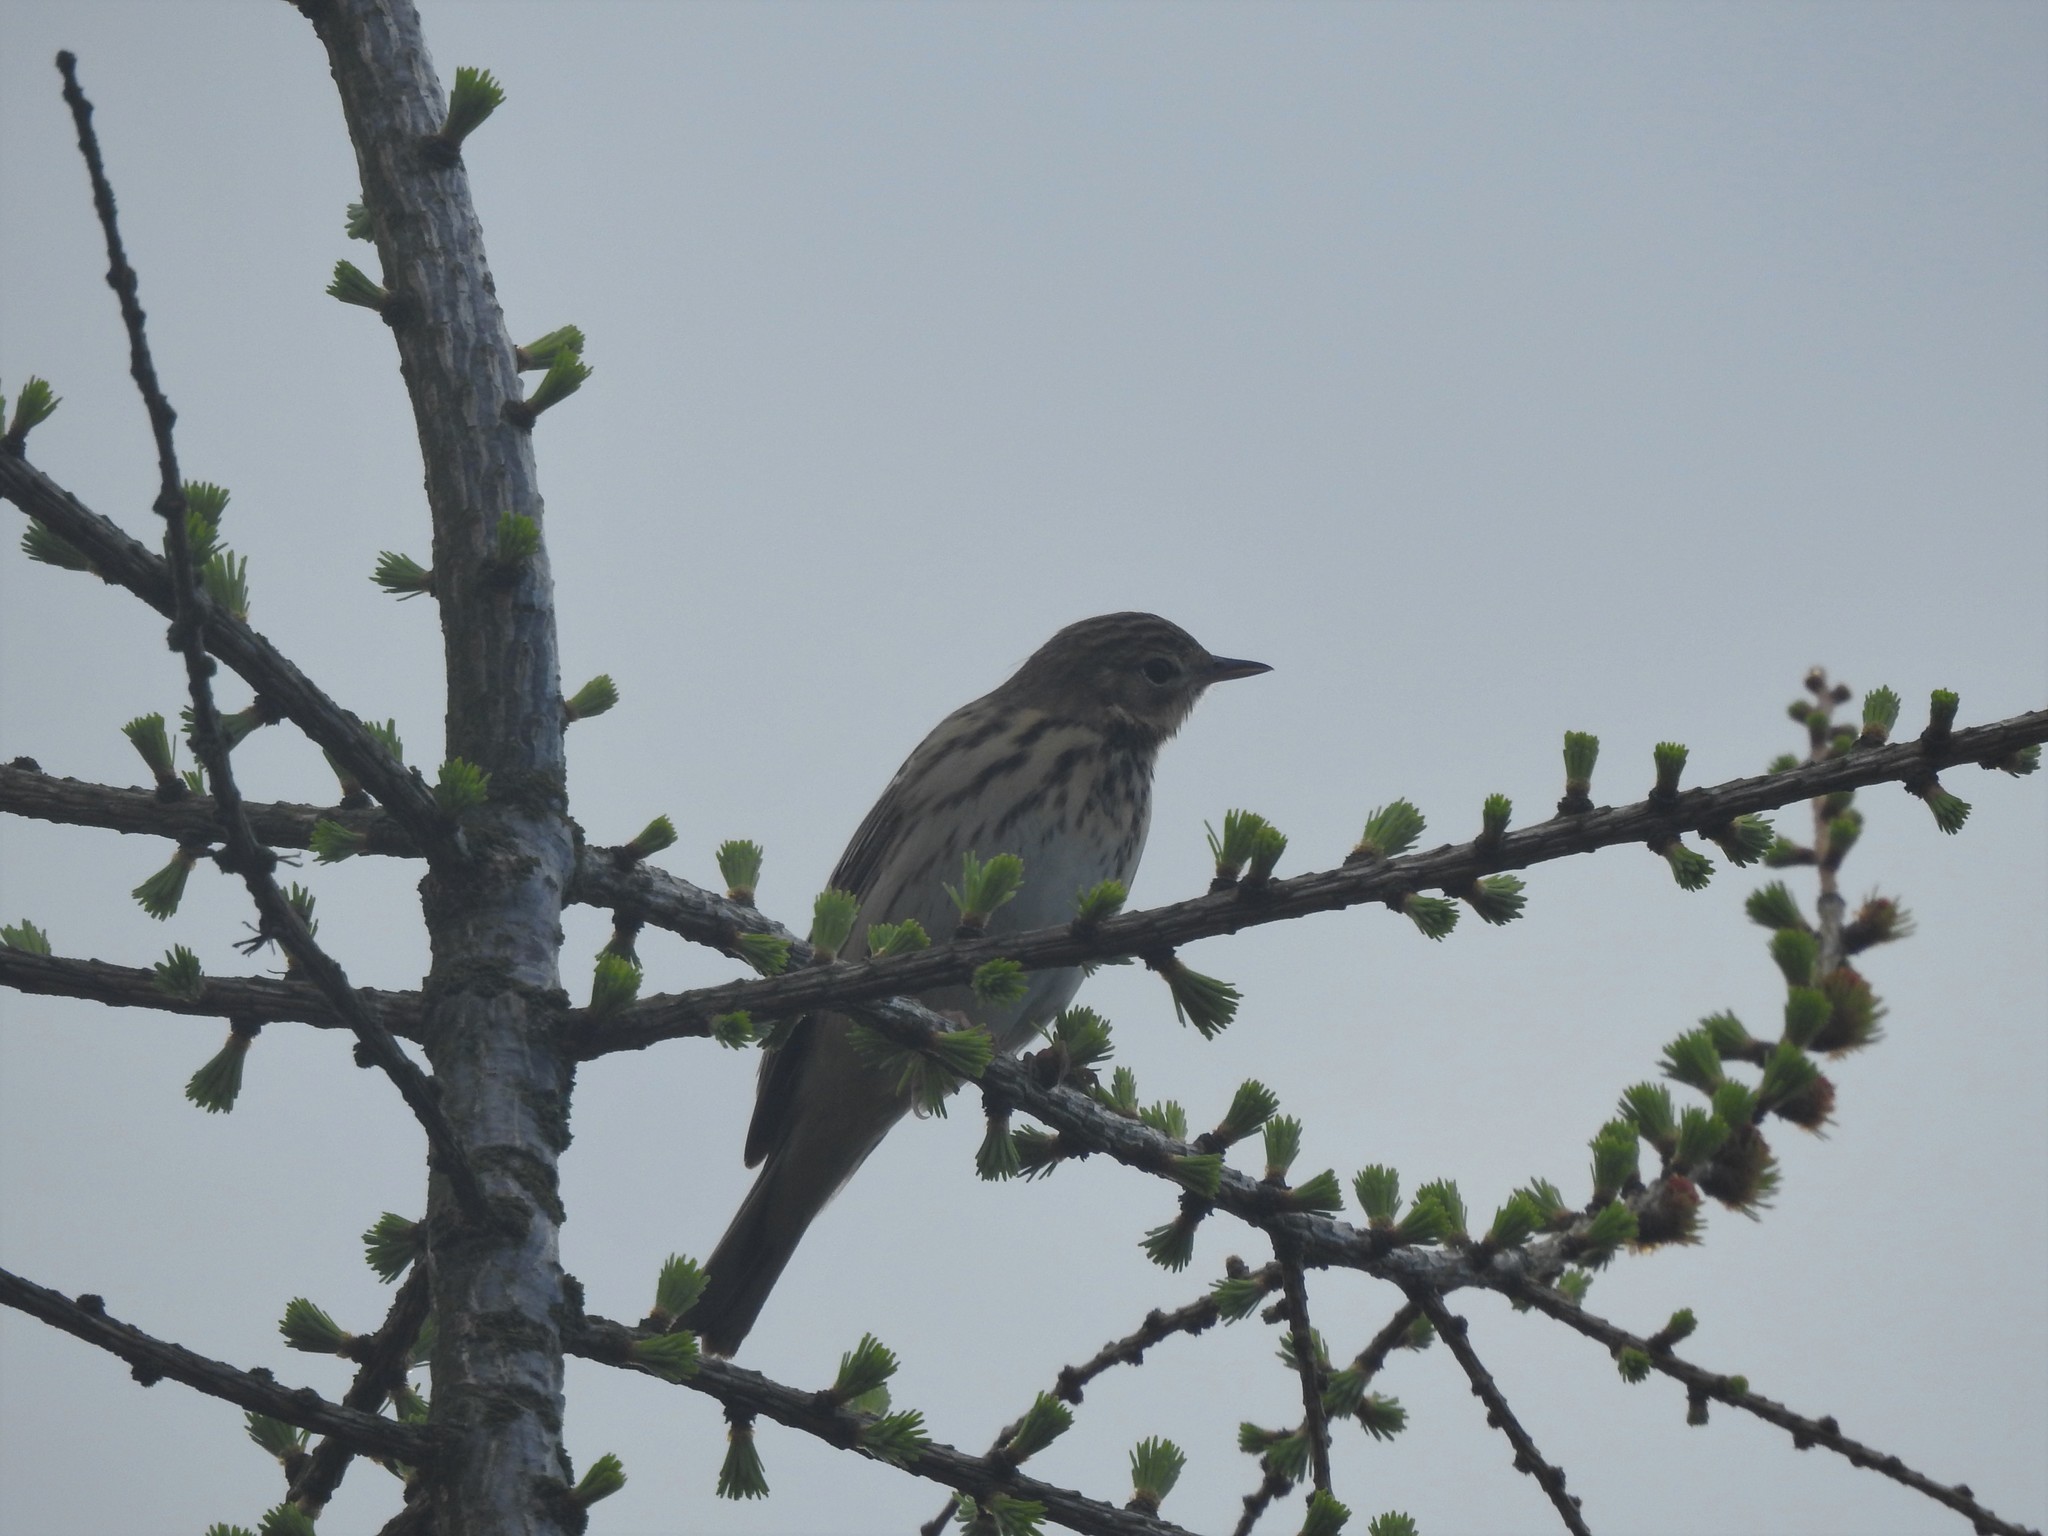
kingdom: Animalia
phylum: Chordata
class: Aves
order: Passeriformes
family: Motacillidae
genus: Anthus
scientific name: Anthus trivialis
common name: Tree pipit
